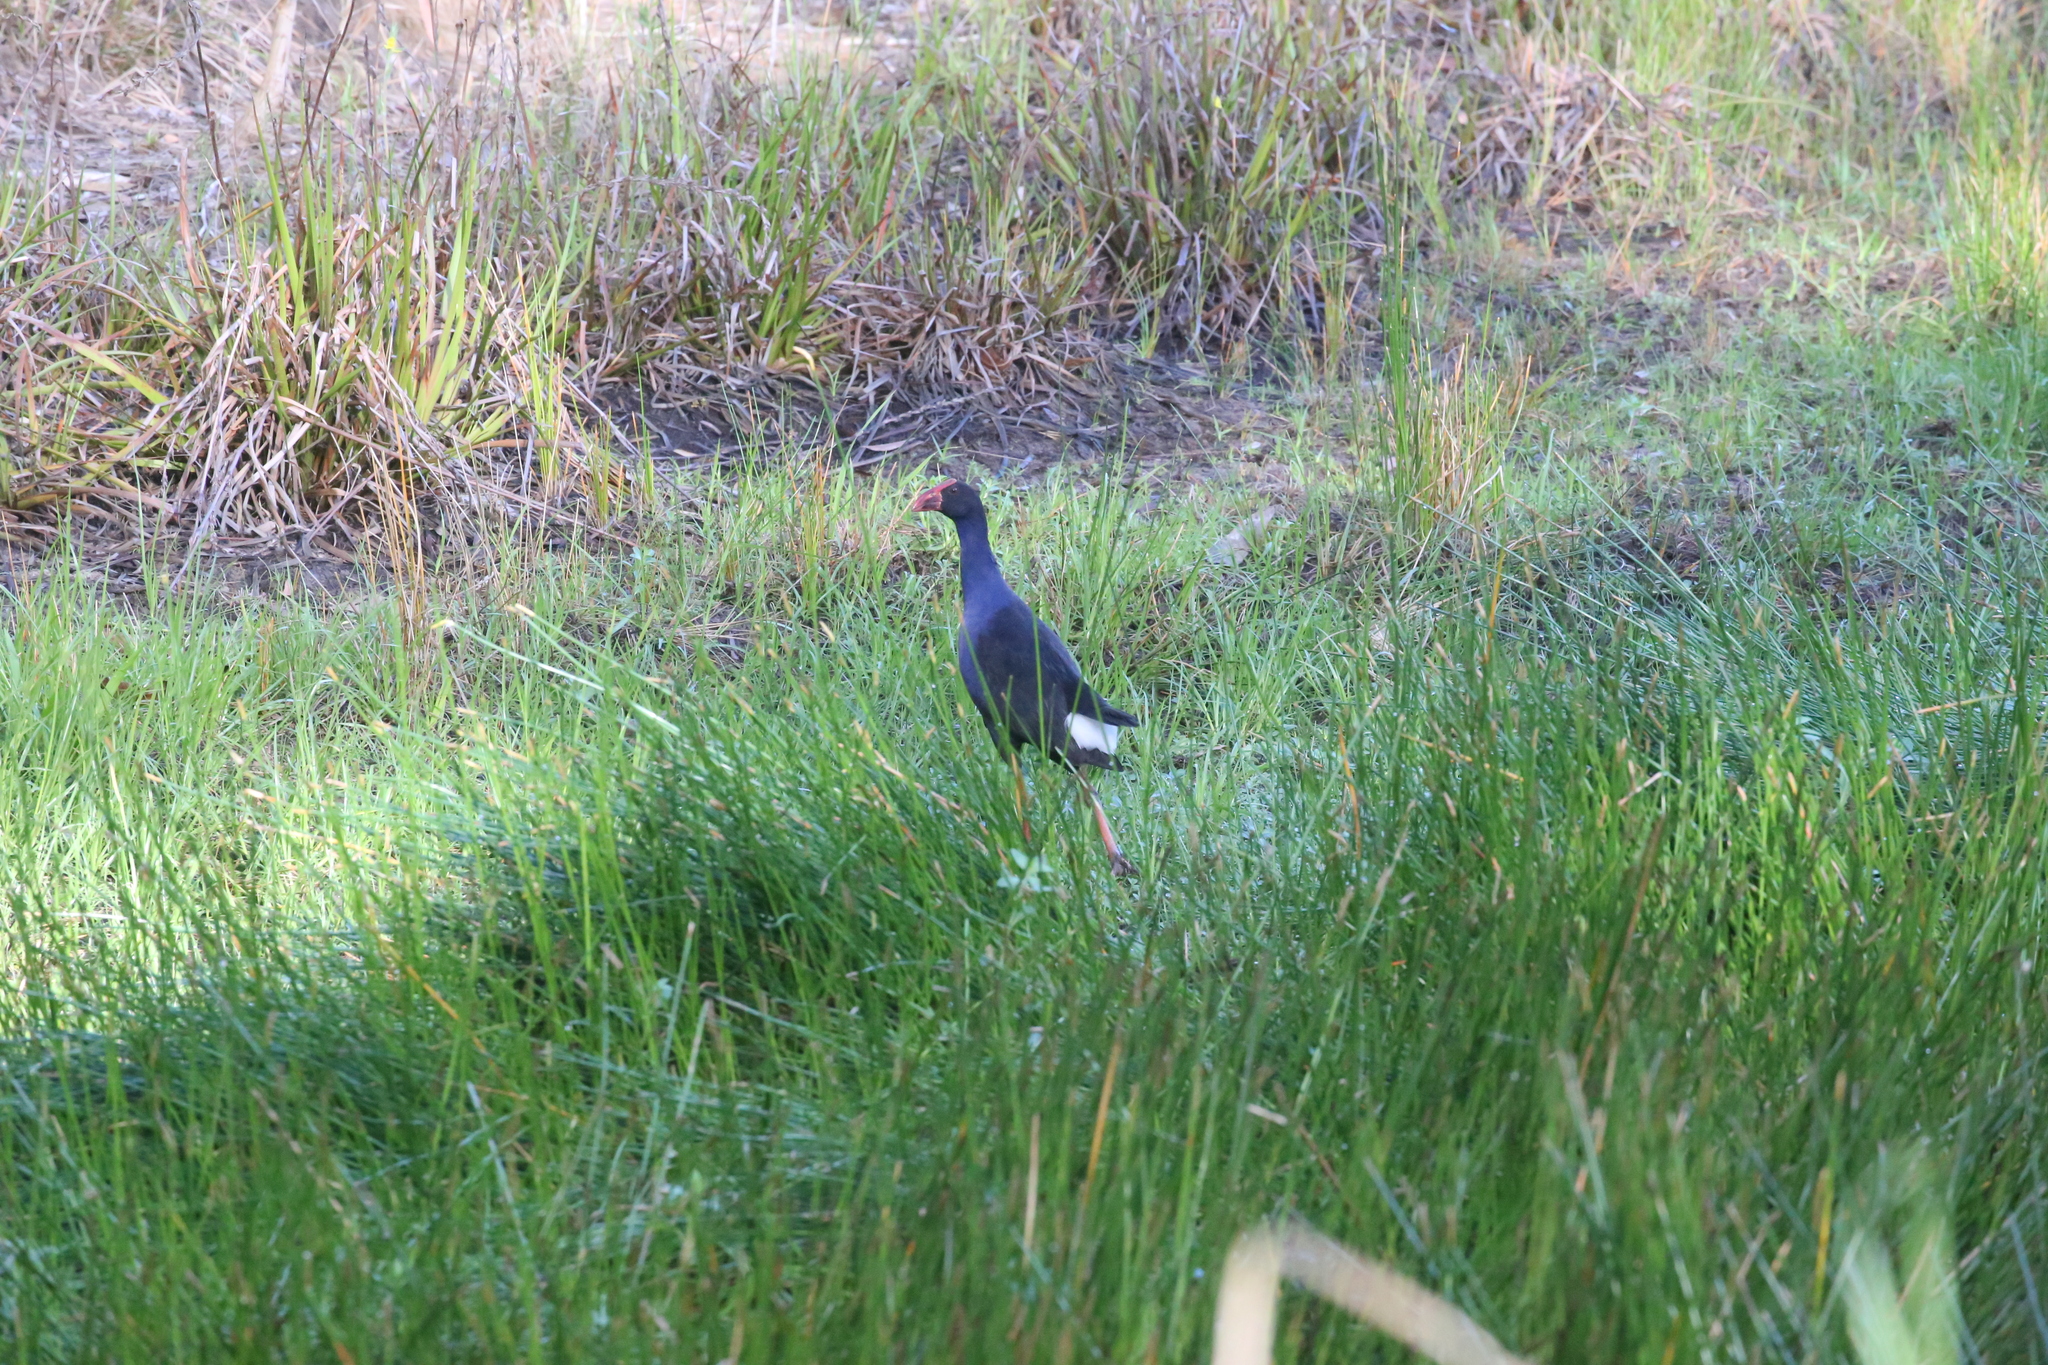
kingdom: Animalia
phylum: Chordata
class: Aves
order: Gruiformes
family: Rallidae
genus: Porphyrio
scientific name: Porphyrio melanotus
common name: Australasian swamphen
